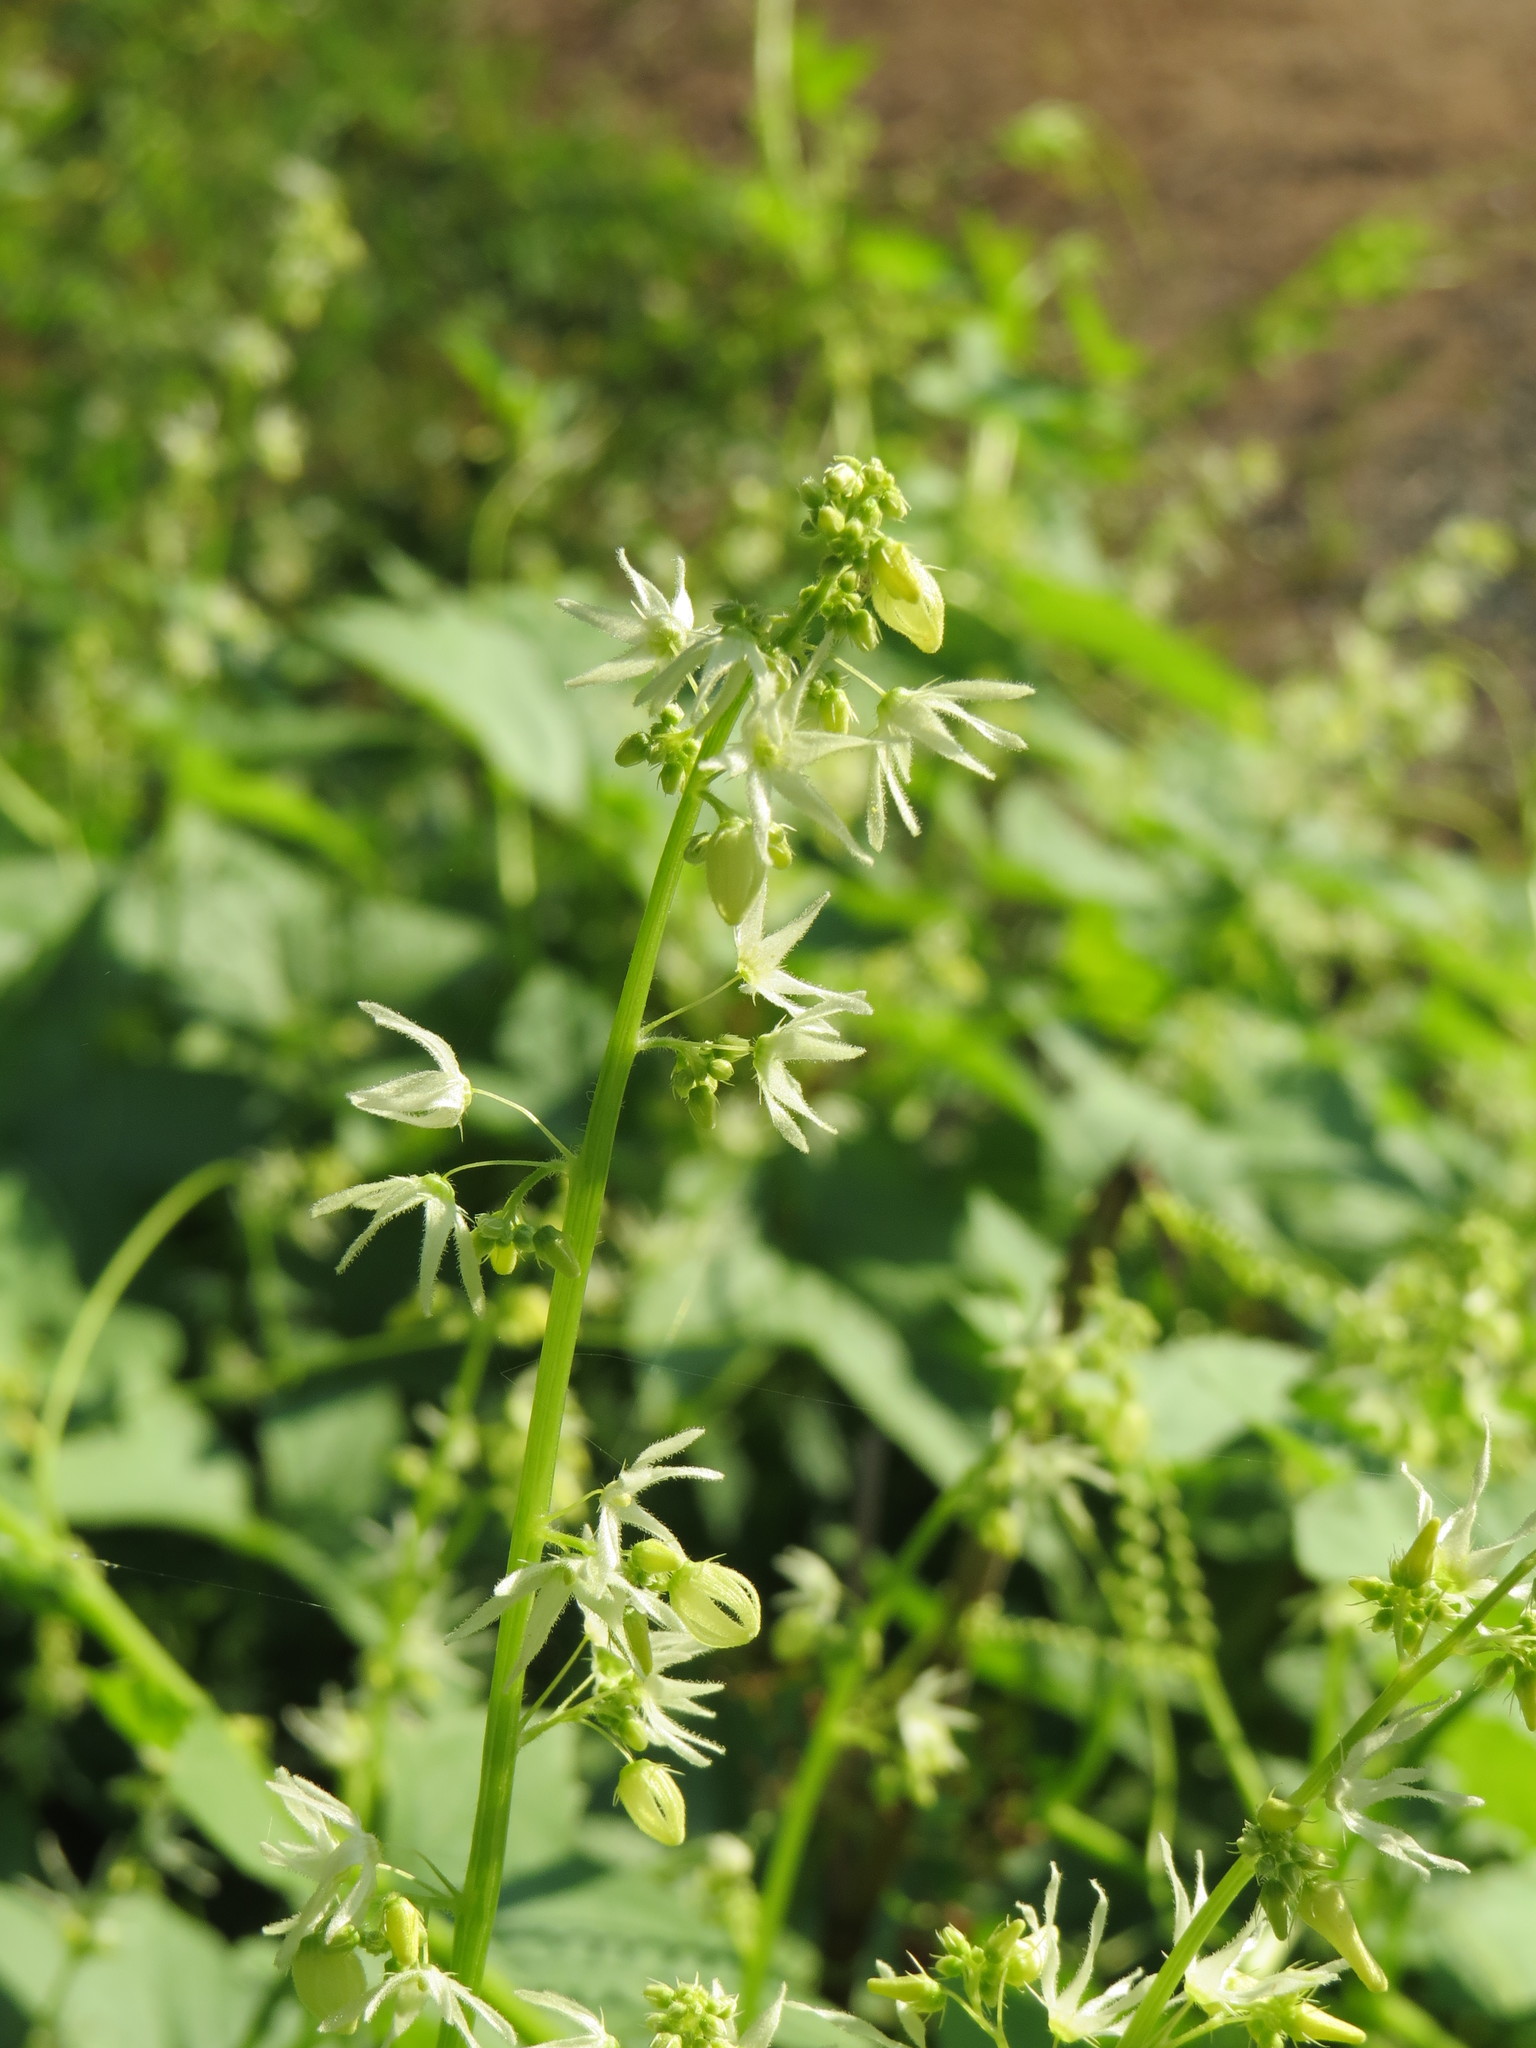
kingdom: Plantae
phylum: Tracheophyta
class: Magnoliopsida
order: Cucurbitales
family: Cucurbitaceae
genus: Echinocystis
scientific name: Echinocystis lobata
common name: Wild cucumber
